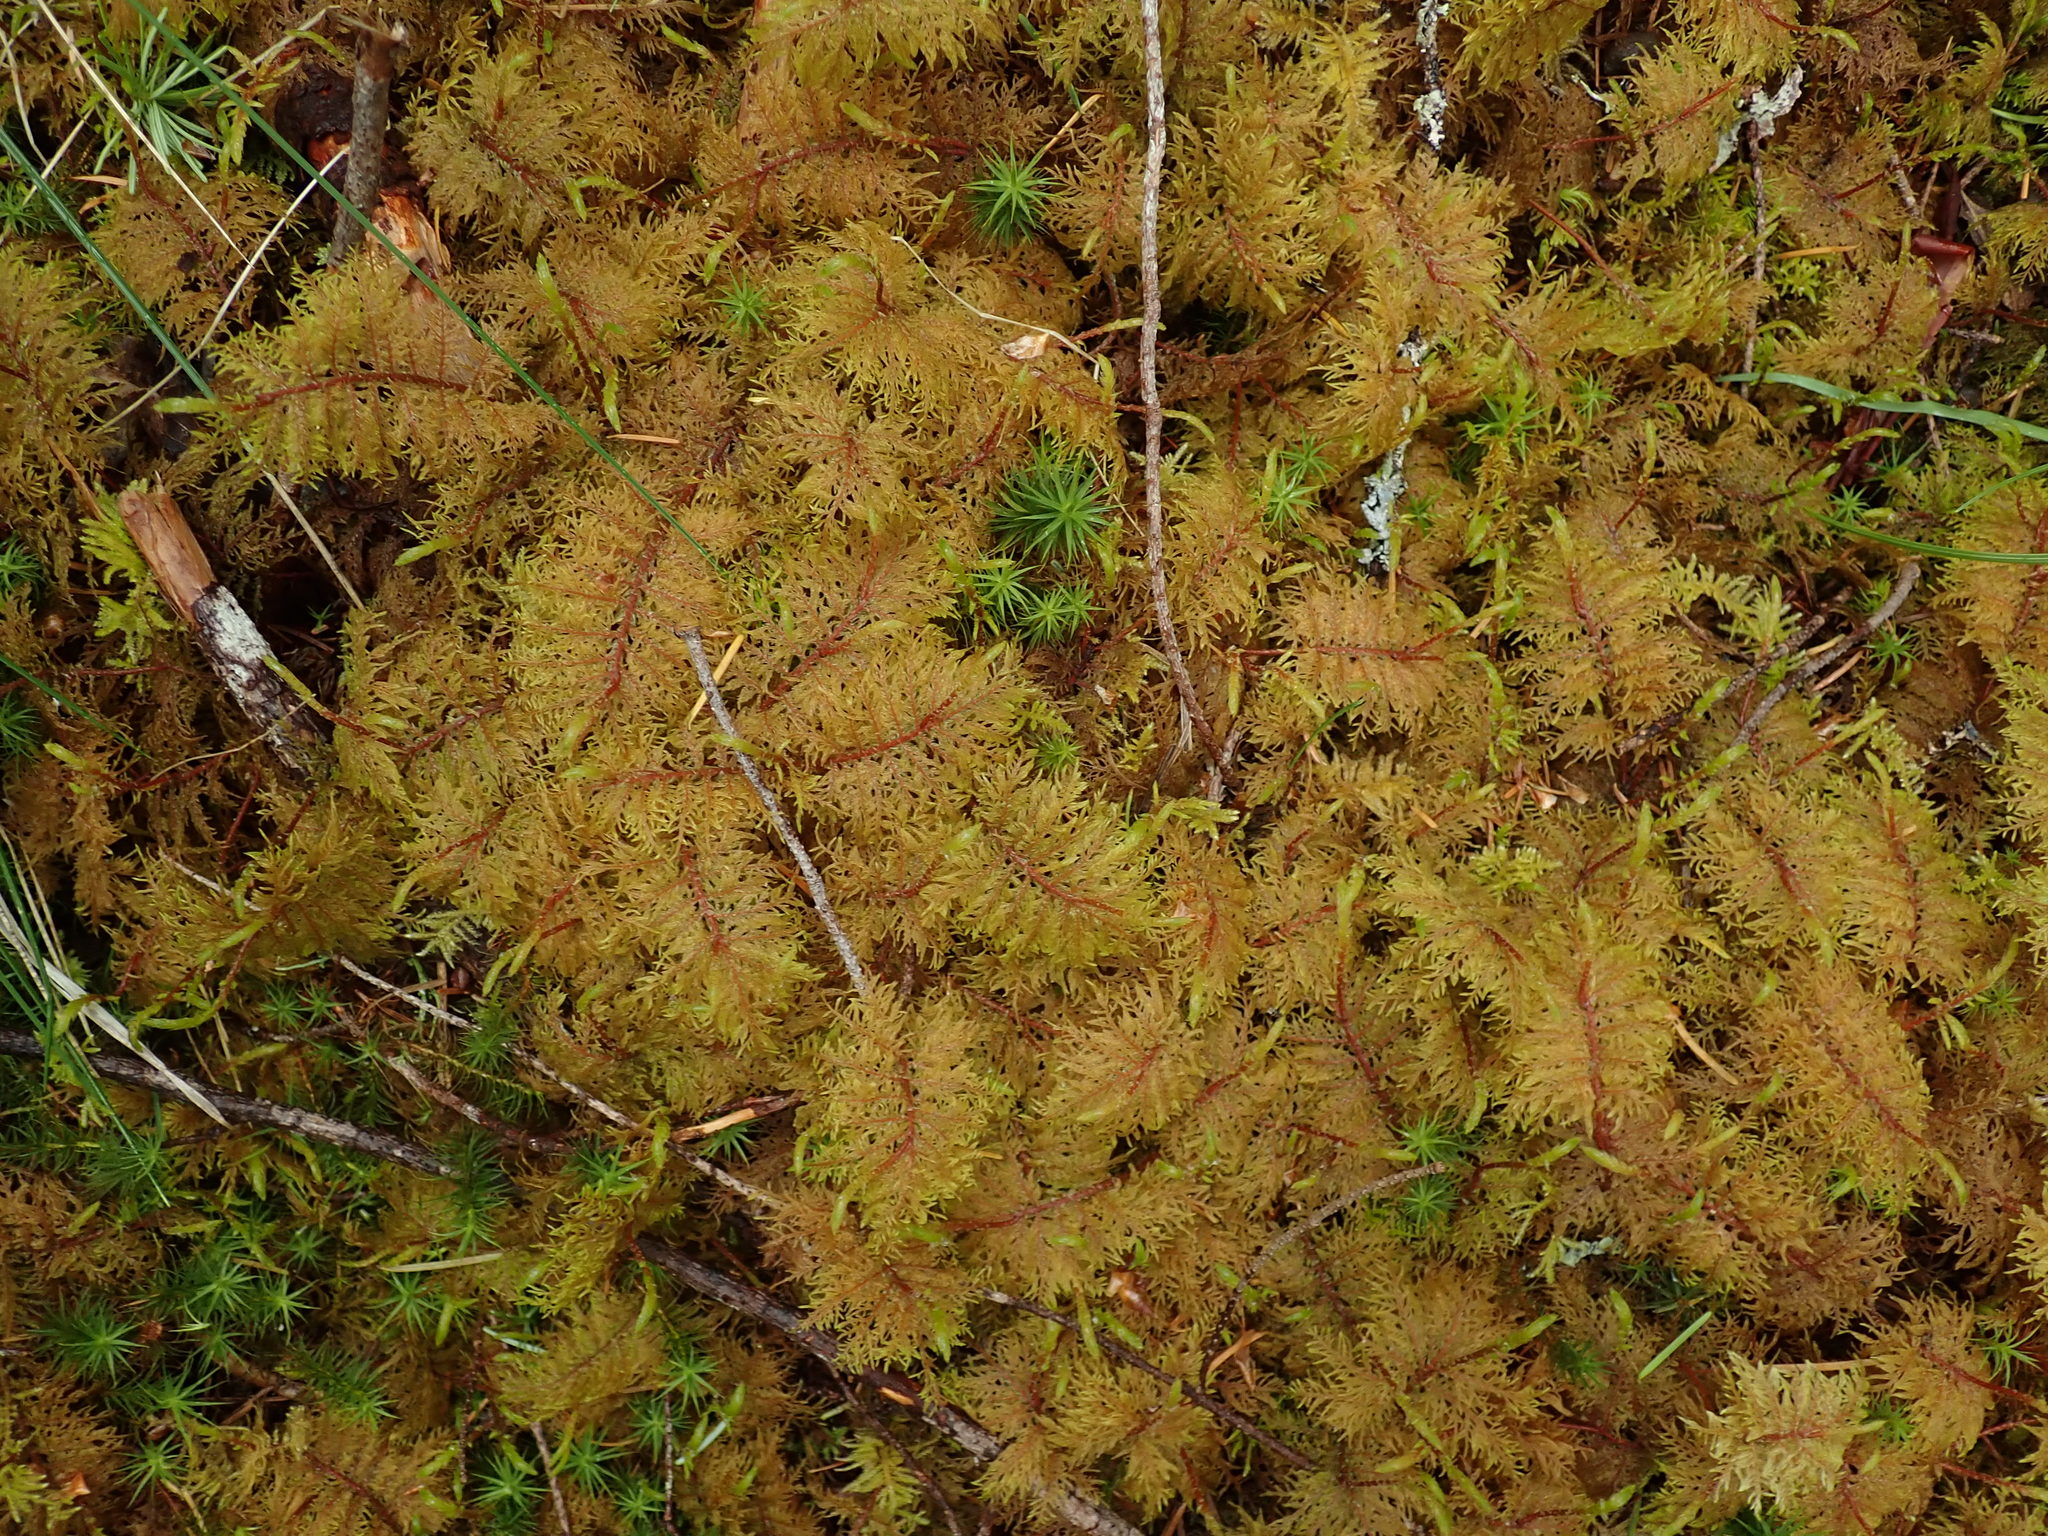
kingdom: Plantae
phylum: Bryophyta
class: Bryopsida
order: Hypnales
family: Hylocomiaceae
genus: Hylocomium
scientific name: Hylocomium splendens
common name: Stairstep moss
